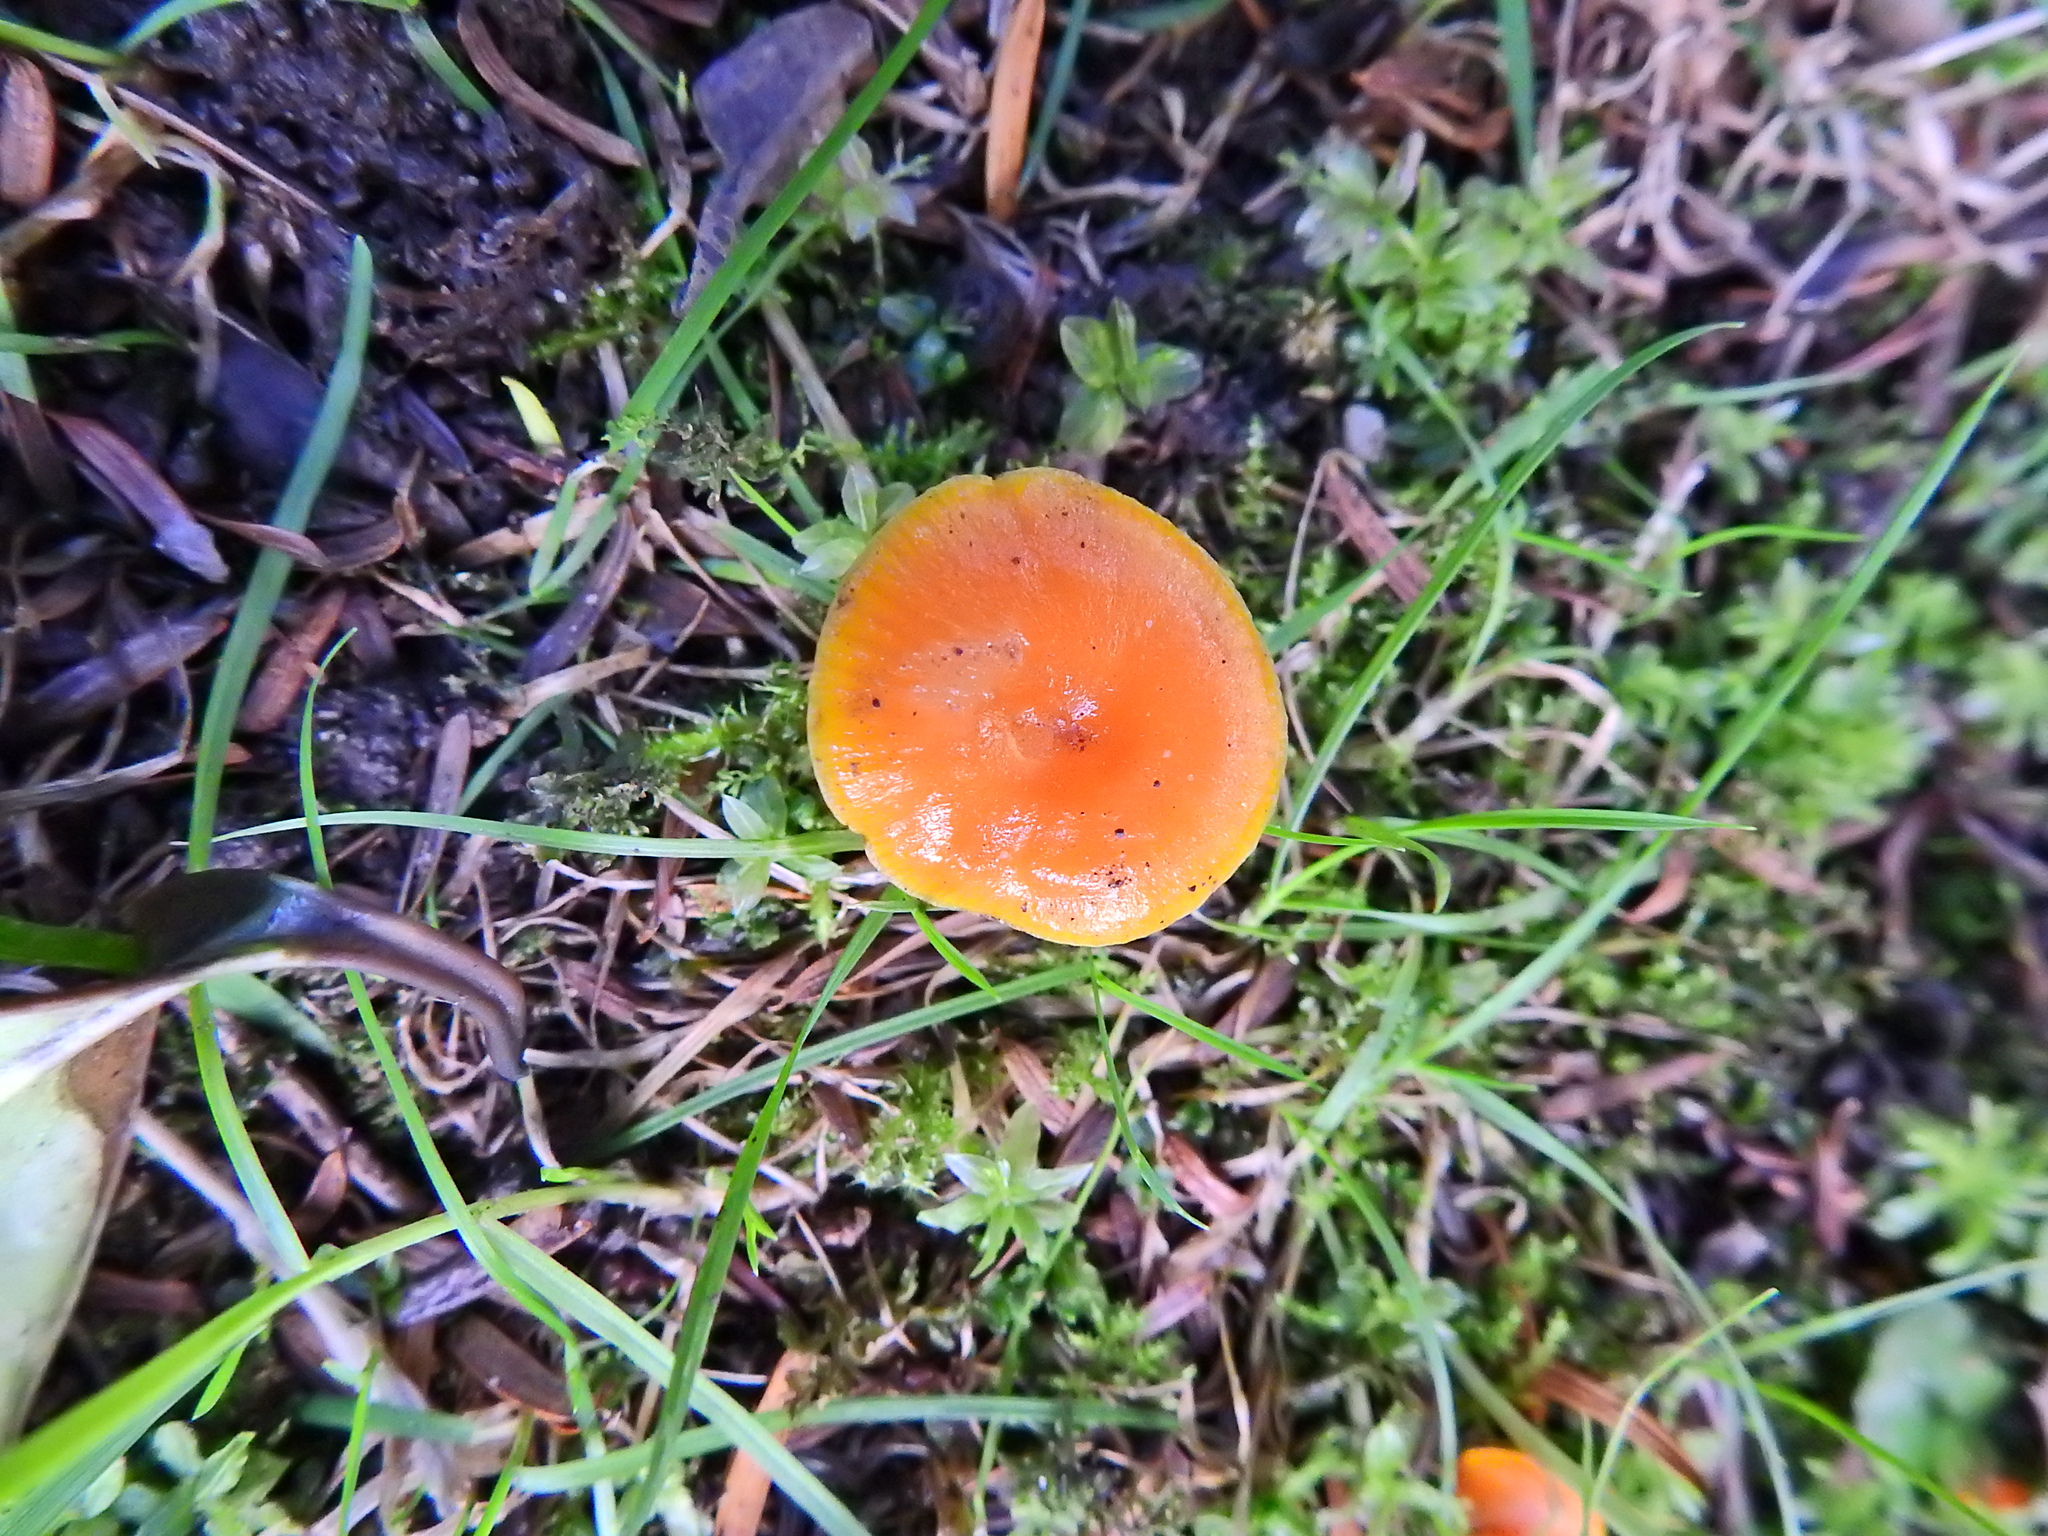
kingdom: Fungi
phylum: Basidiomycota
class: Agaricomycetes
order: Agaricales
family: Hygrophoraceae
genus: Hygrocybe
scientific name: Hygrocybe ceracea
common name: Butter waxcap
